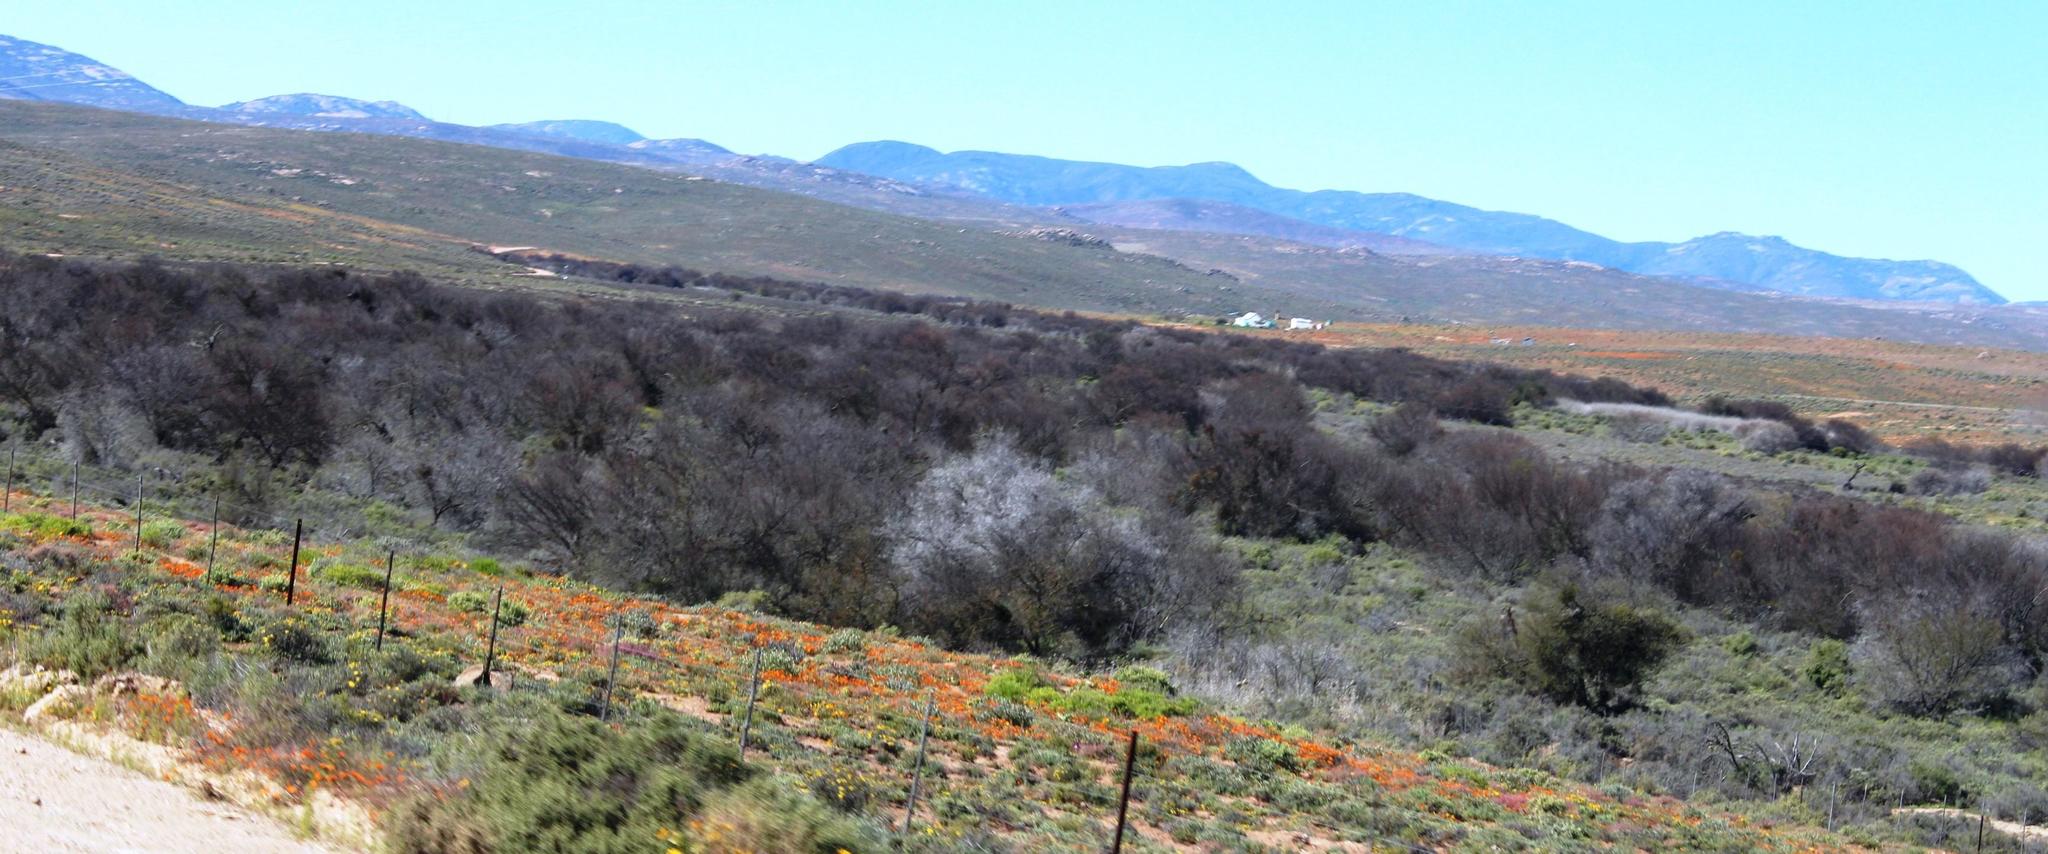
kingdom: Plantae
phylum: Tracheophyta
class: Magnoliopsida
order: Fabales
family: Fabaceae
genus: Vachellia
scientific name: Vachellia karroo
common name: Sweet thorn
